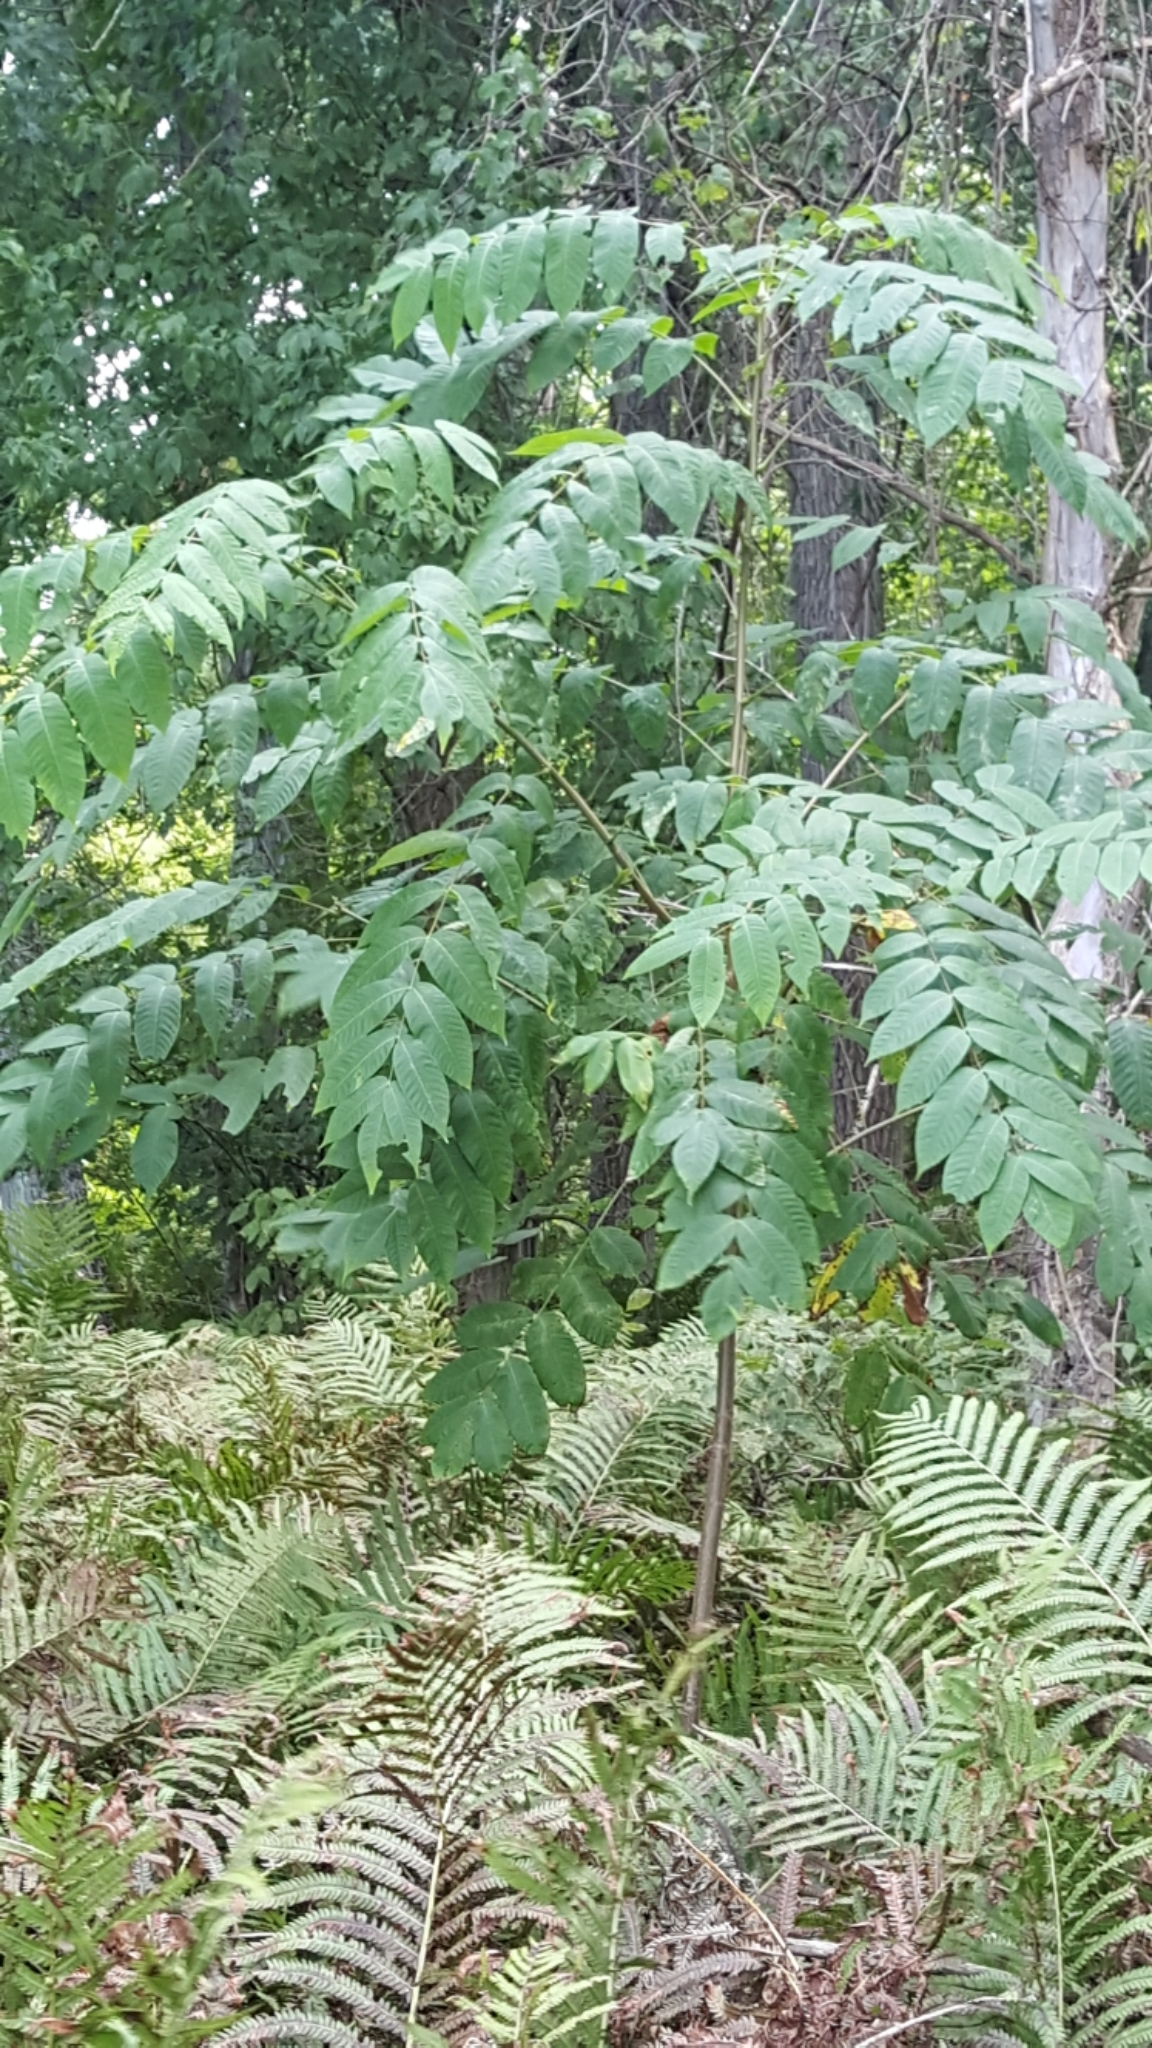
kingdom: Plantae
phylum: Tracheophyta
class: Magnoliopsida
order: Fagales
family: Juglandaceae
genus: Juglans
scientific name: Juglans cinerea
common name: Butternut
